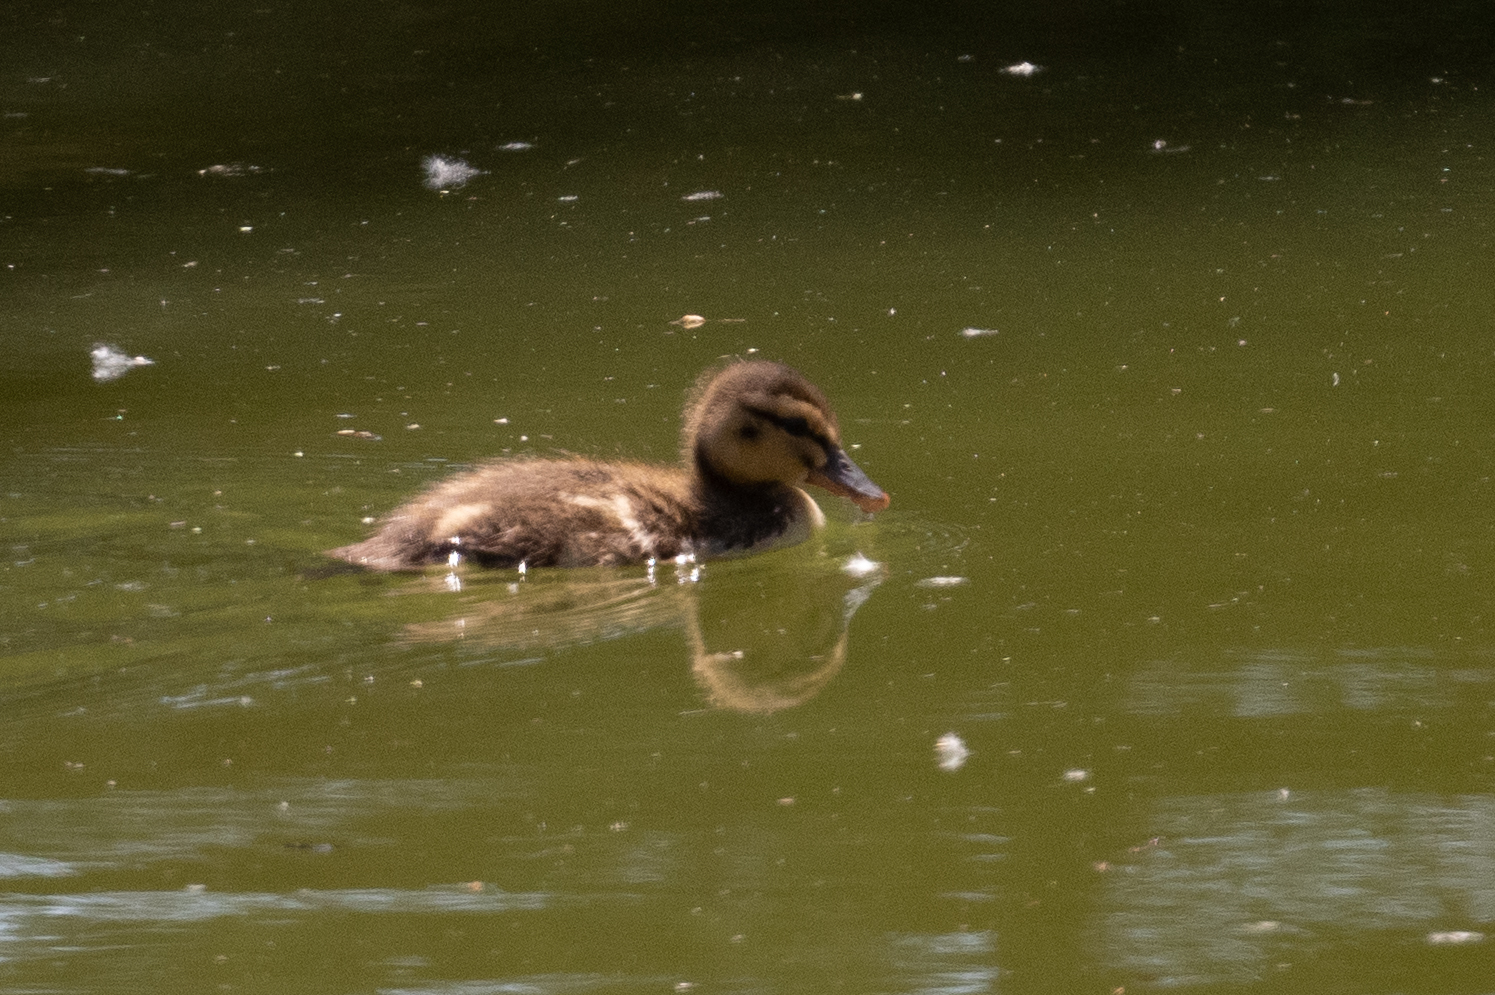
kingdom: Animalia
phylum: Chordata
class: Aves
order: Anseriformes
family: Anatidae
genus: Anas
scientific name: Anas platyrhynchos
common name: Mallard
